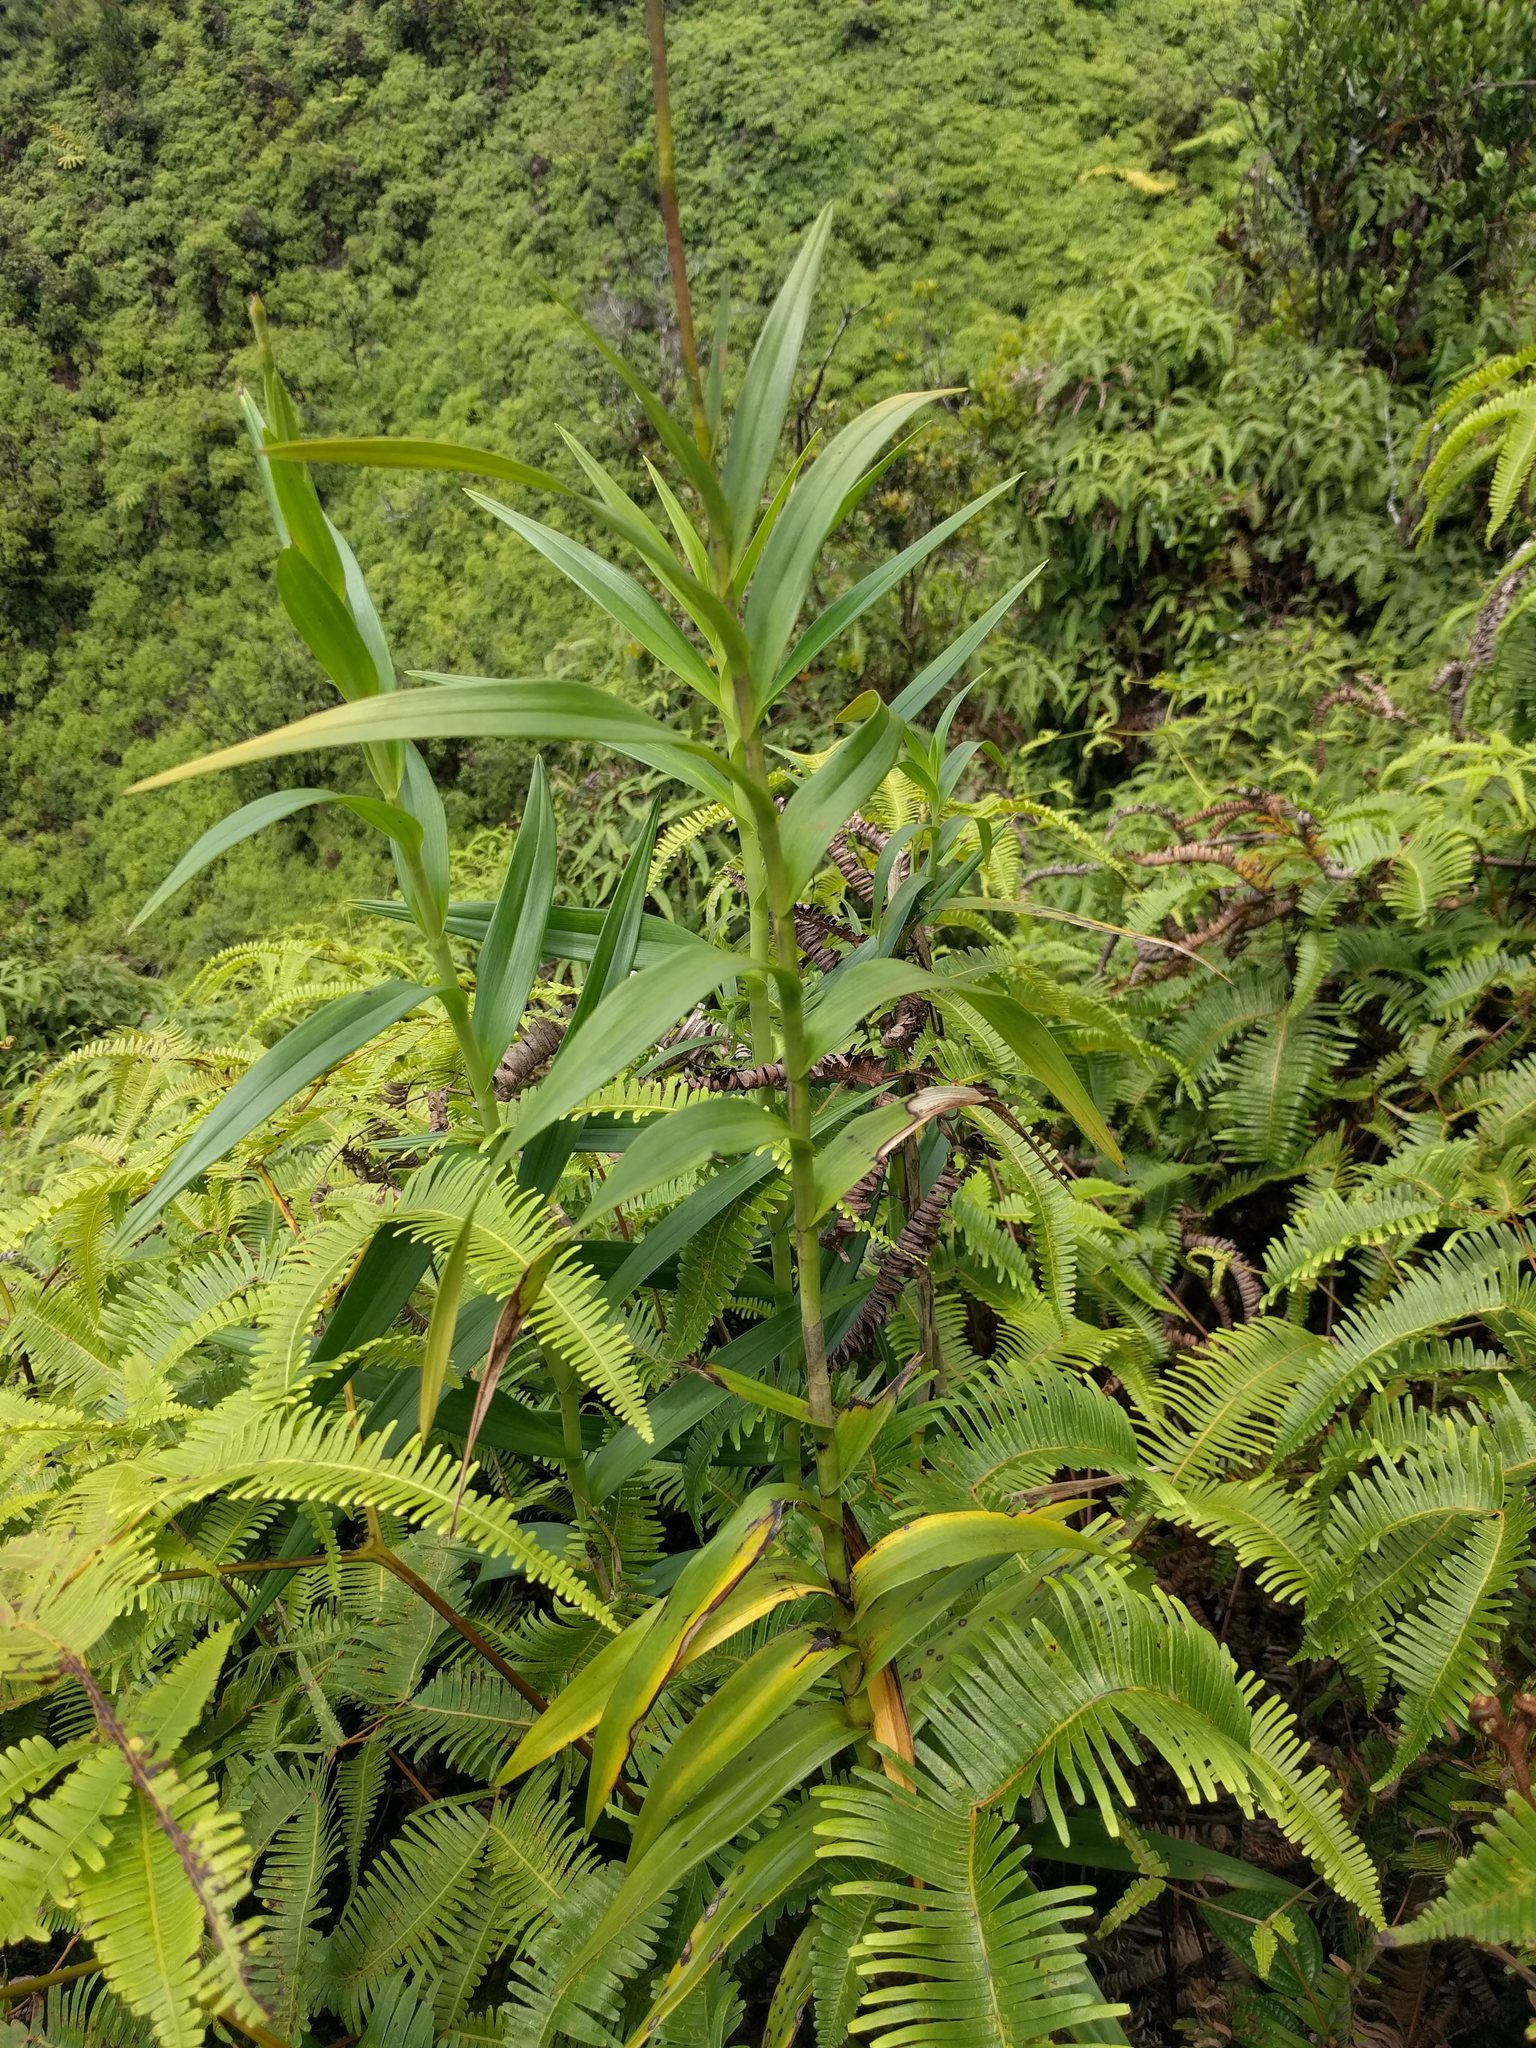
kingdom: Plantae
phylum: Tracheophyta
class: Liliopsida
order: Asparagales
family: Orchidaceae
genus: Arundina
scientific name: Arundina graminifolia
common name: Bamboo orchid
